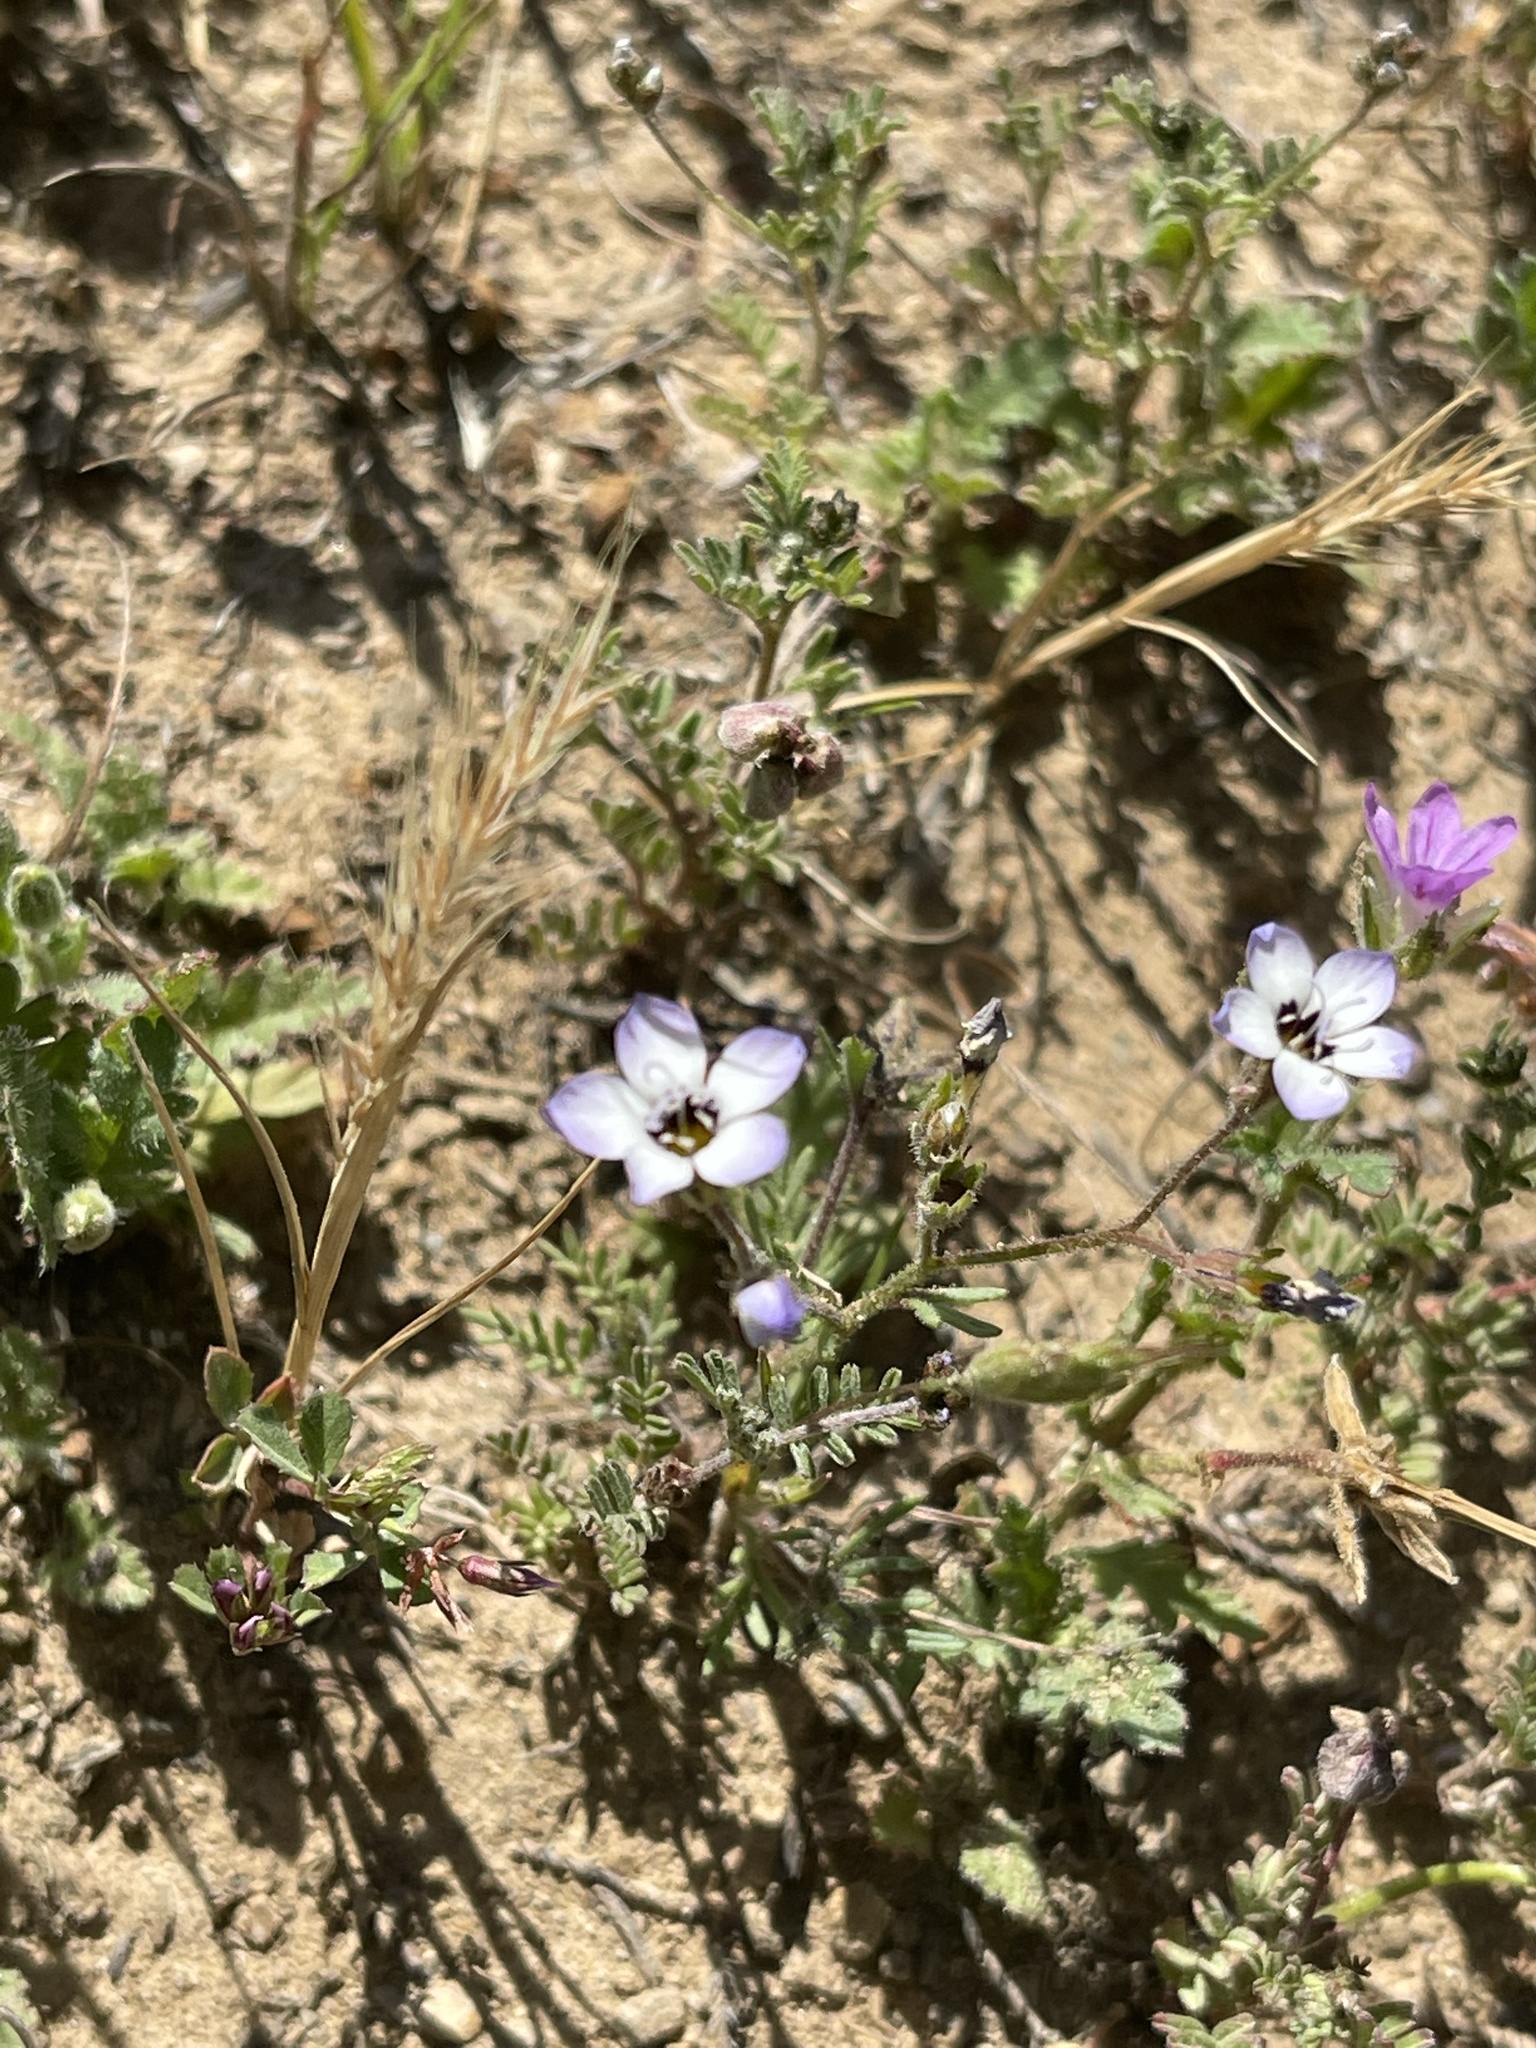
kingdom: Plantae
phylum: Tracheophyta
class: Magnoliopsida
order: Ericales
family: Polemoniaceae
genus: Gilia
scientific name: Gilia tricolor
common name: Bird's-eyes
